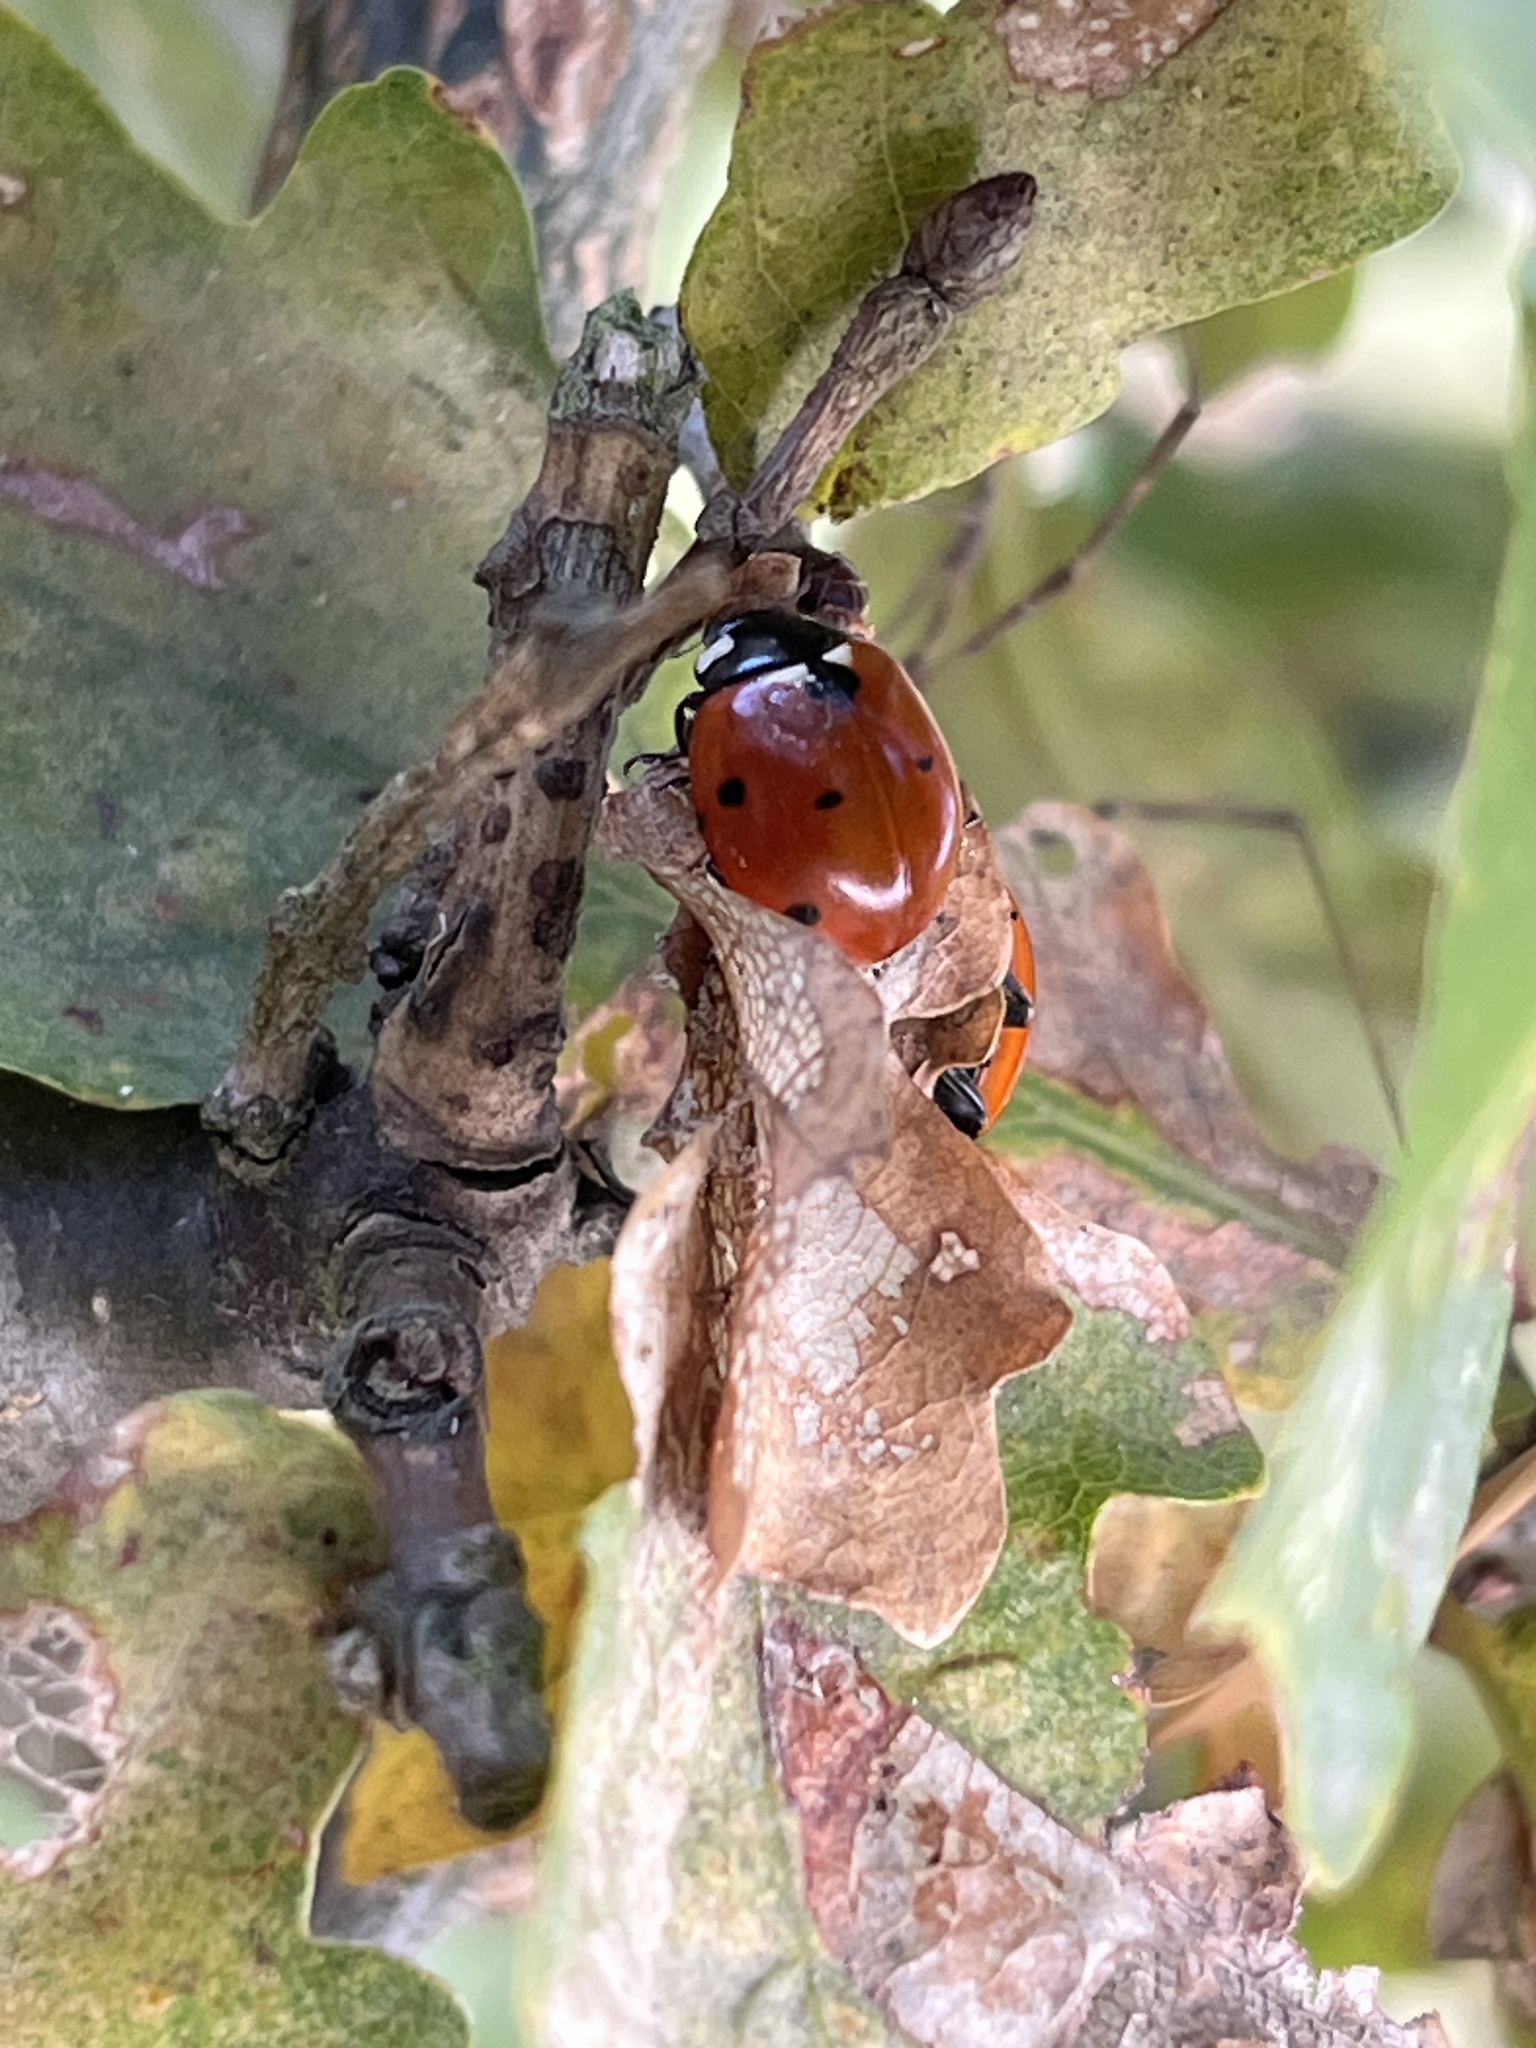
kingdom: Animalia
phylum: Arthropoda
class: Insecta
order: Coleoptera
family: Coccinellidae
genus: Coccinella
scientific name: Coccinella septempunctata
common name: Sevenspotted lady beetle
